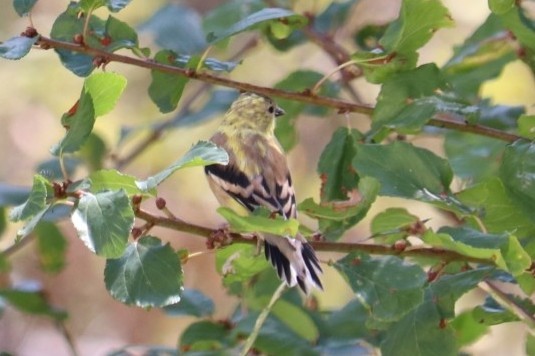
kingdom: Animalia
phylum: Chordata
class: Aves
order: Passeriformes
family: Fringillidae
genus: Spinus
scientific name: Spinus tristis
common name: American goldfinch
